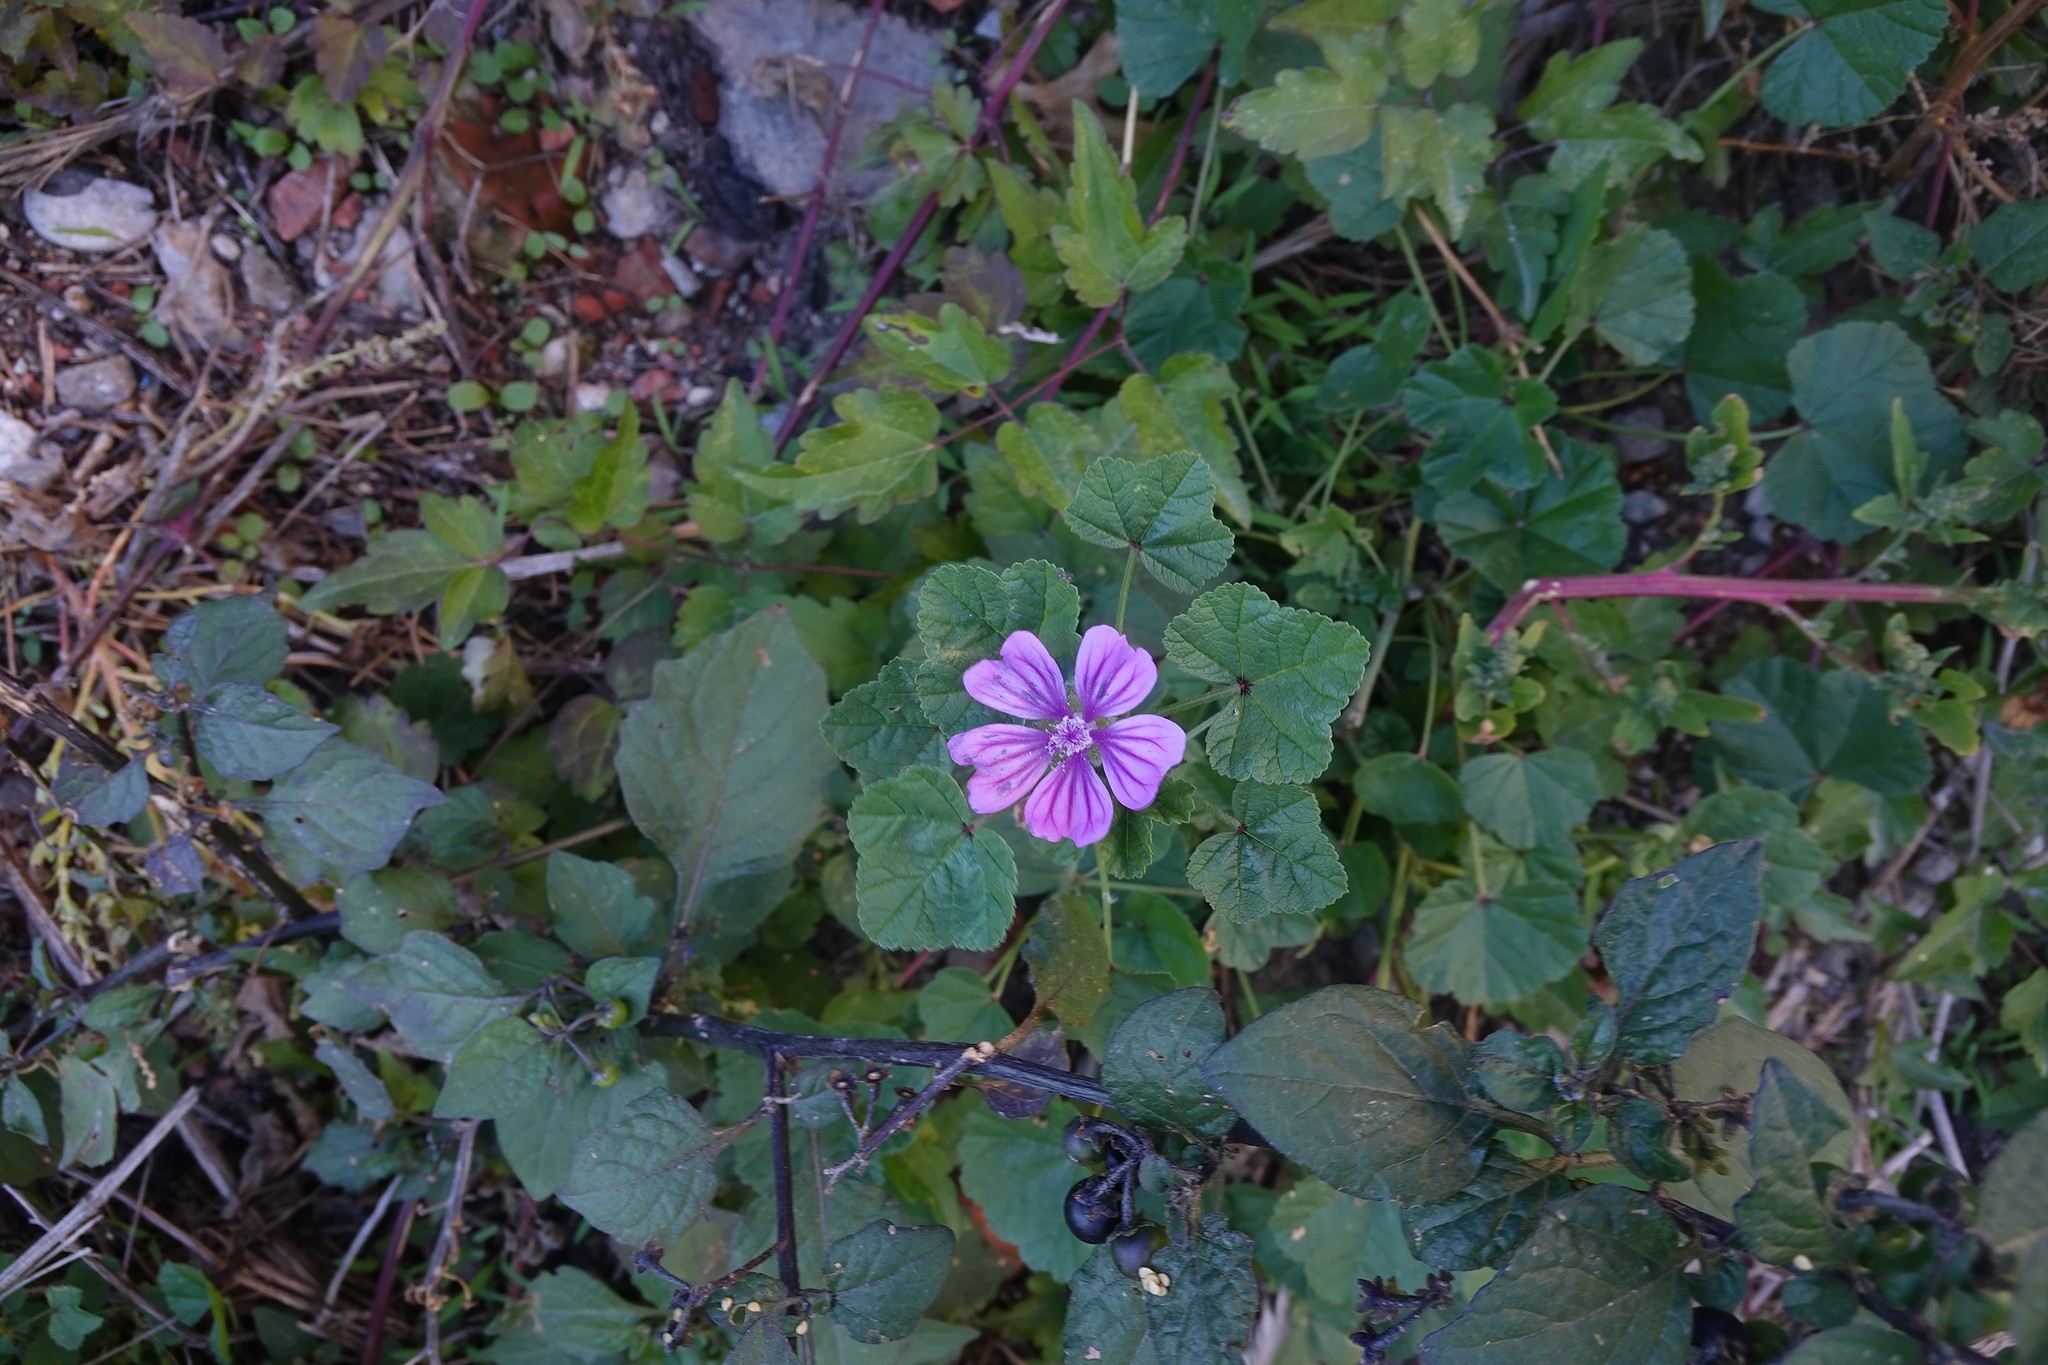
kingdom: Plantae
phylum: Tracheophyta
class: Magnoliopsida
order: Malvales
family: Malvaceae
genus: Malva
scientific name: Malva sylvestris
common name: Common mallow
